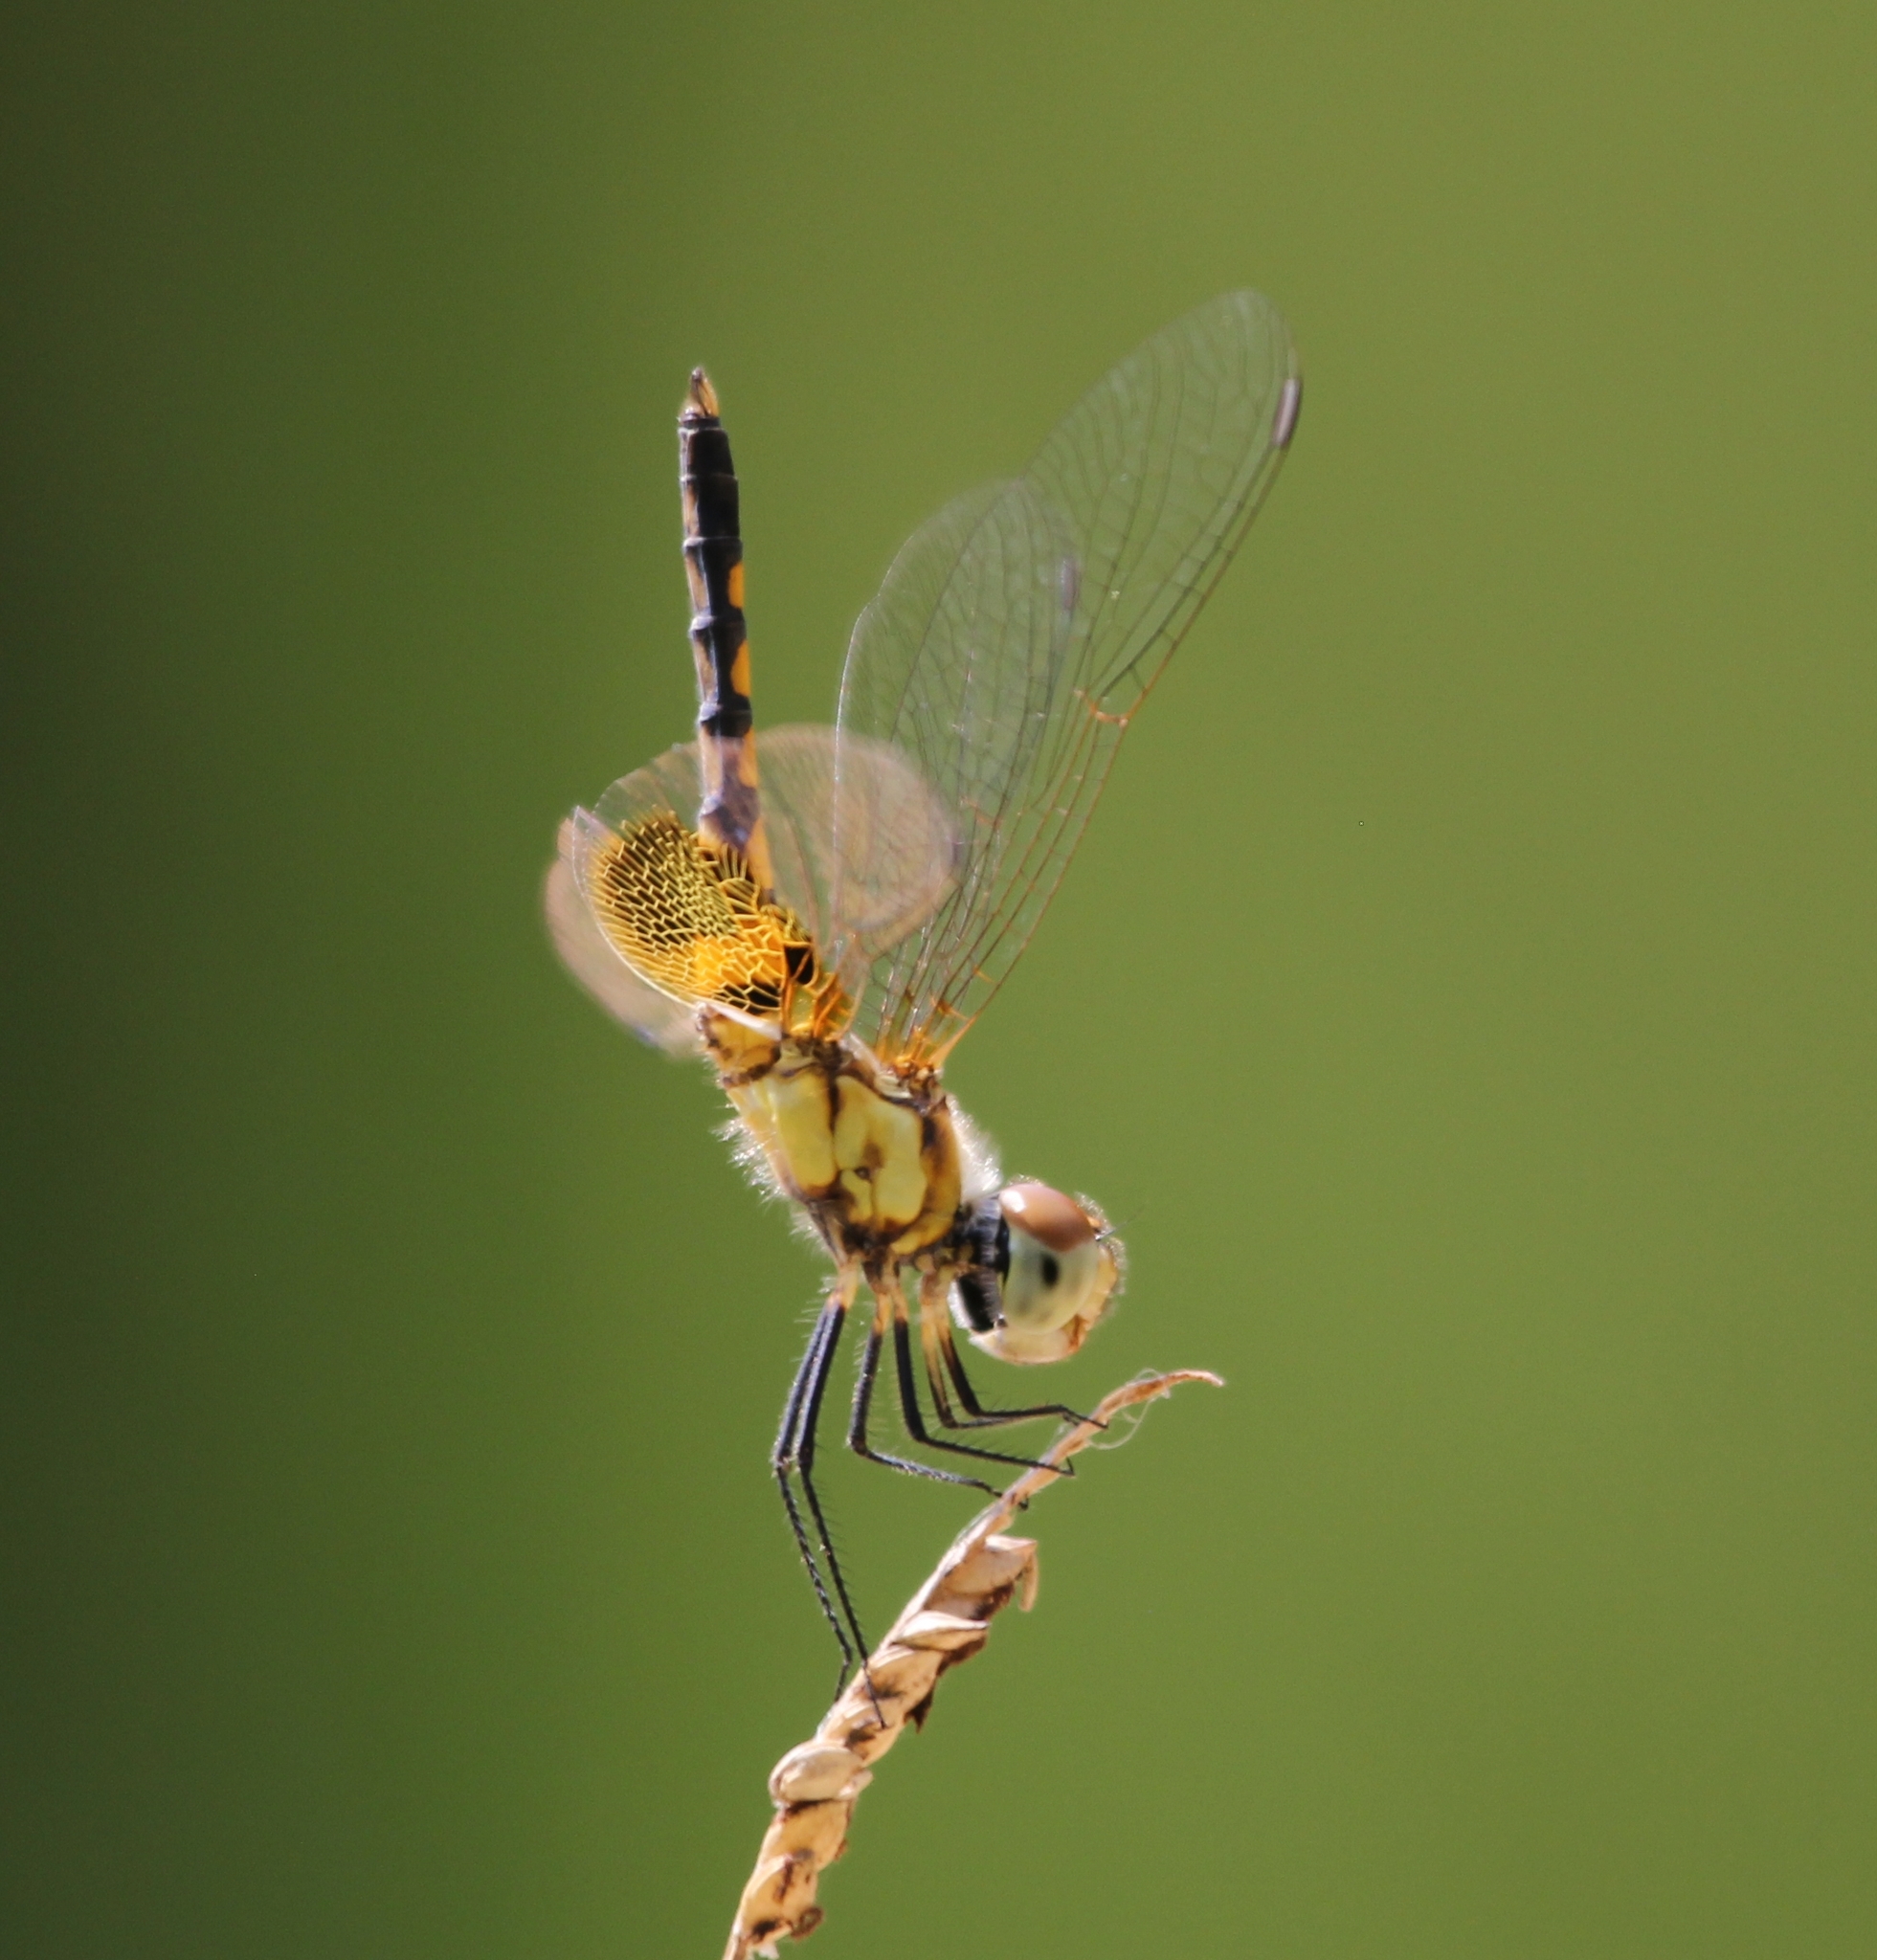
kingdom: Animalia
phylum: Arthropoda
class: Insecta
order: Odonata
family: Libellulidae
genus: Celithemis
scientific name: Celithemis amanda
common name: Amanda's pennant
